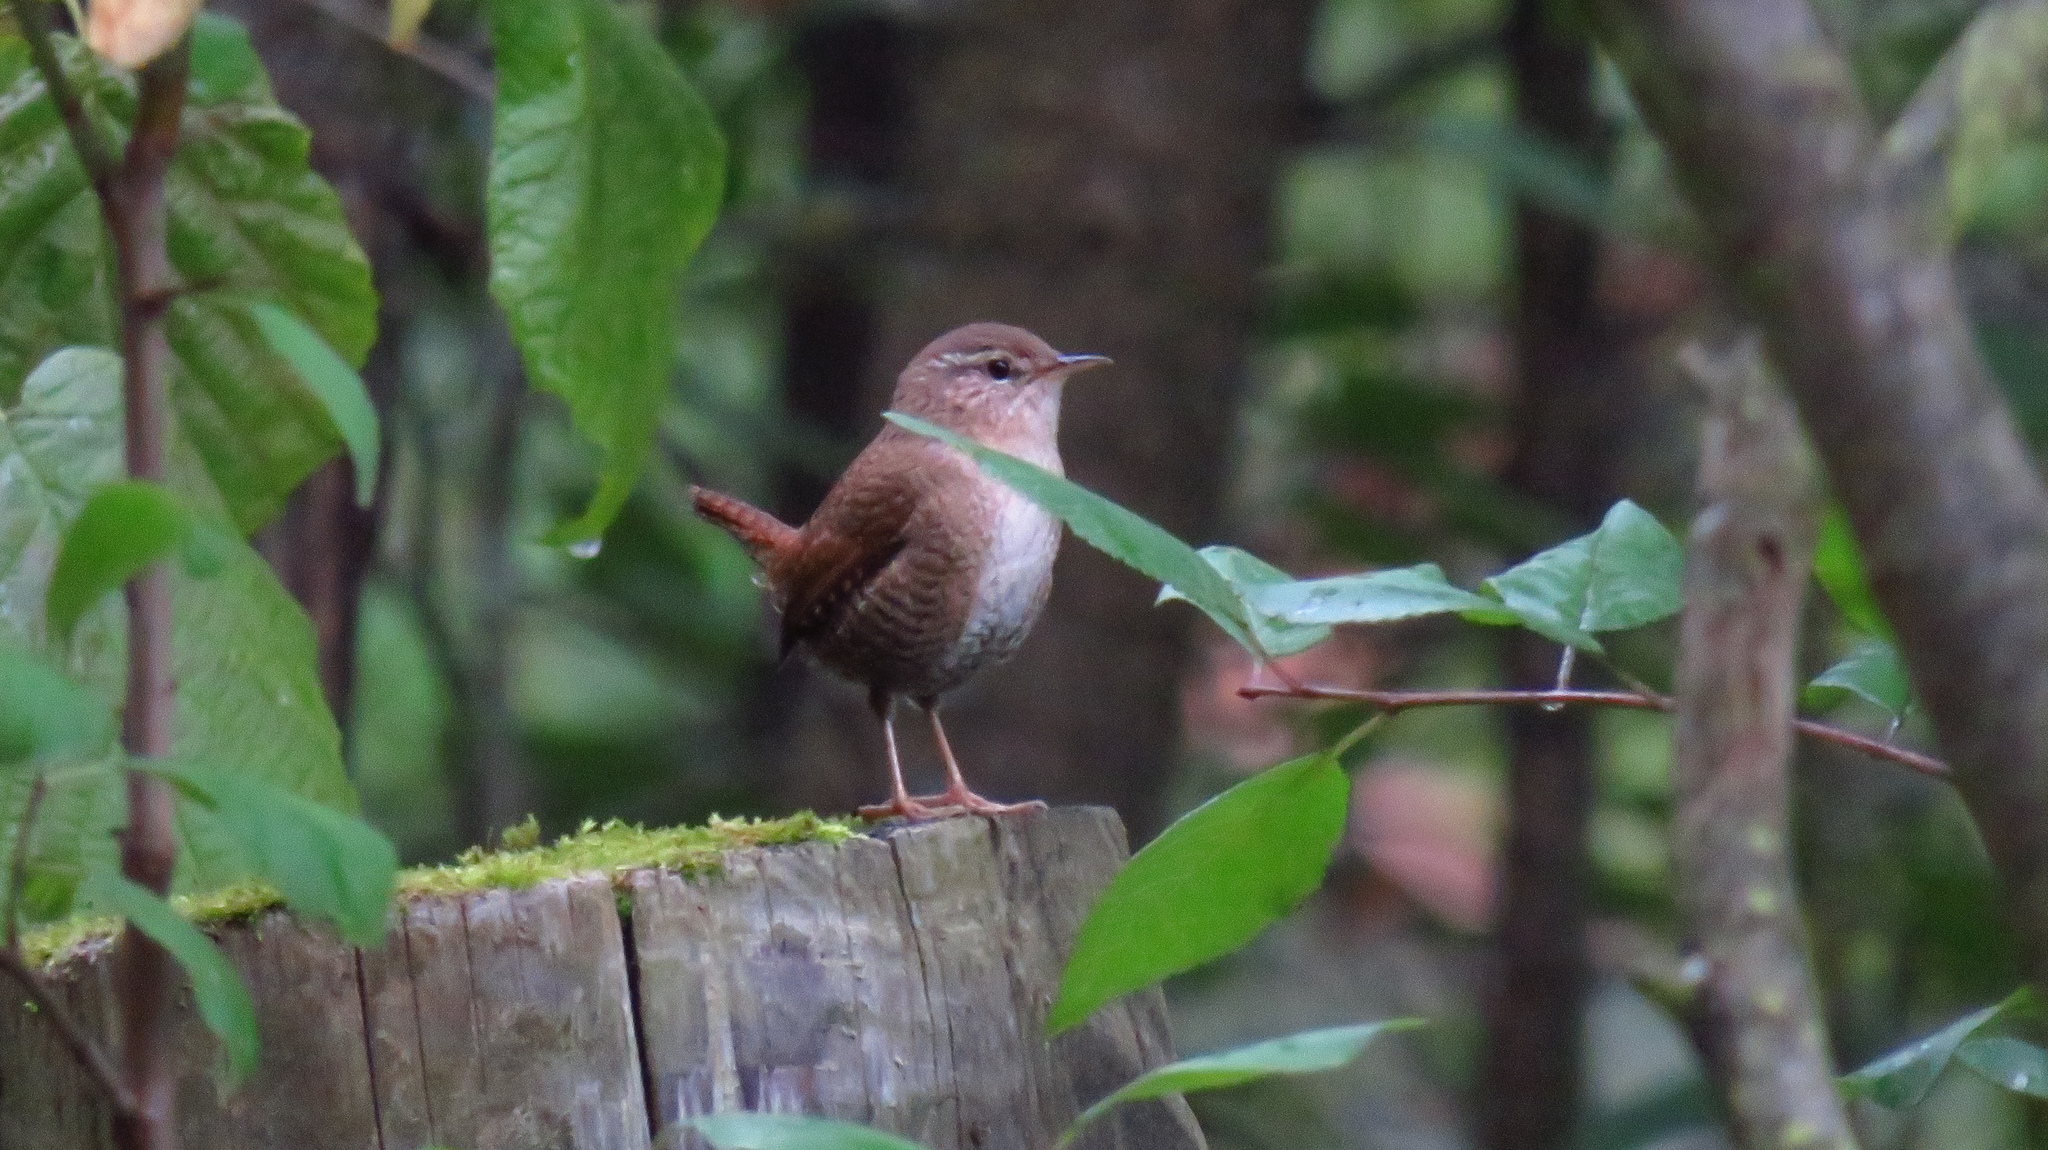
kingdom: Animalia
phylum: Chordata
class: Aves
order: Passeriformes
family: Troglodytidae
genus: Troglodytes
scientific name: Troglodytes troglodytes
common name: Eurasian wren
